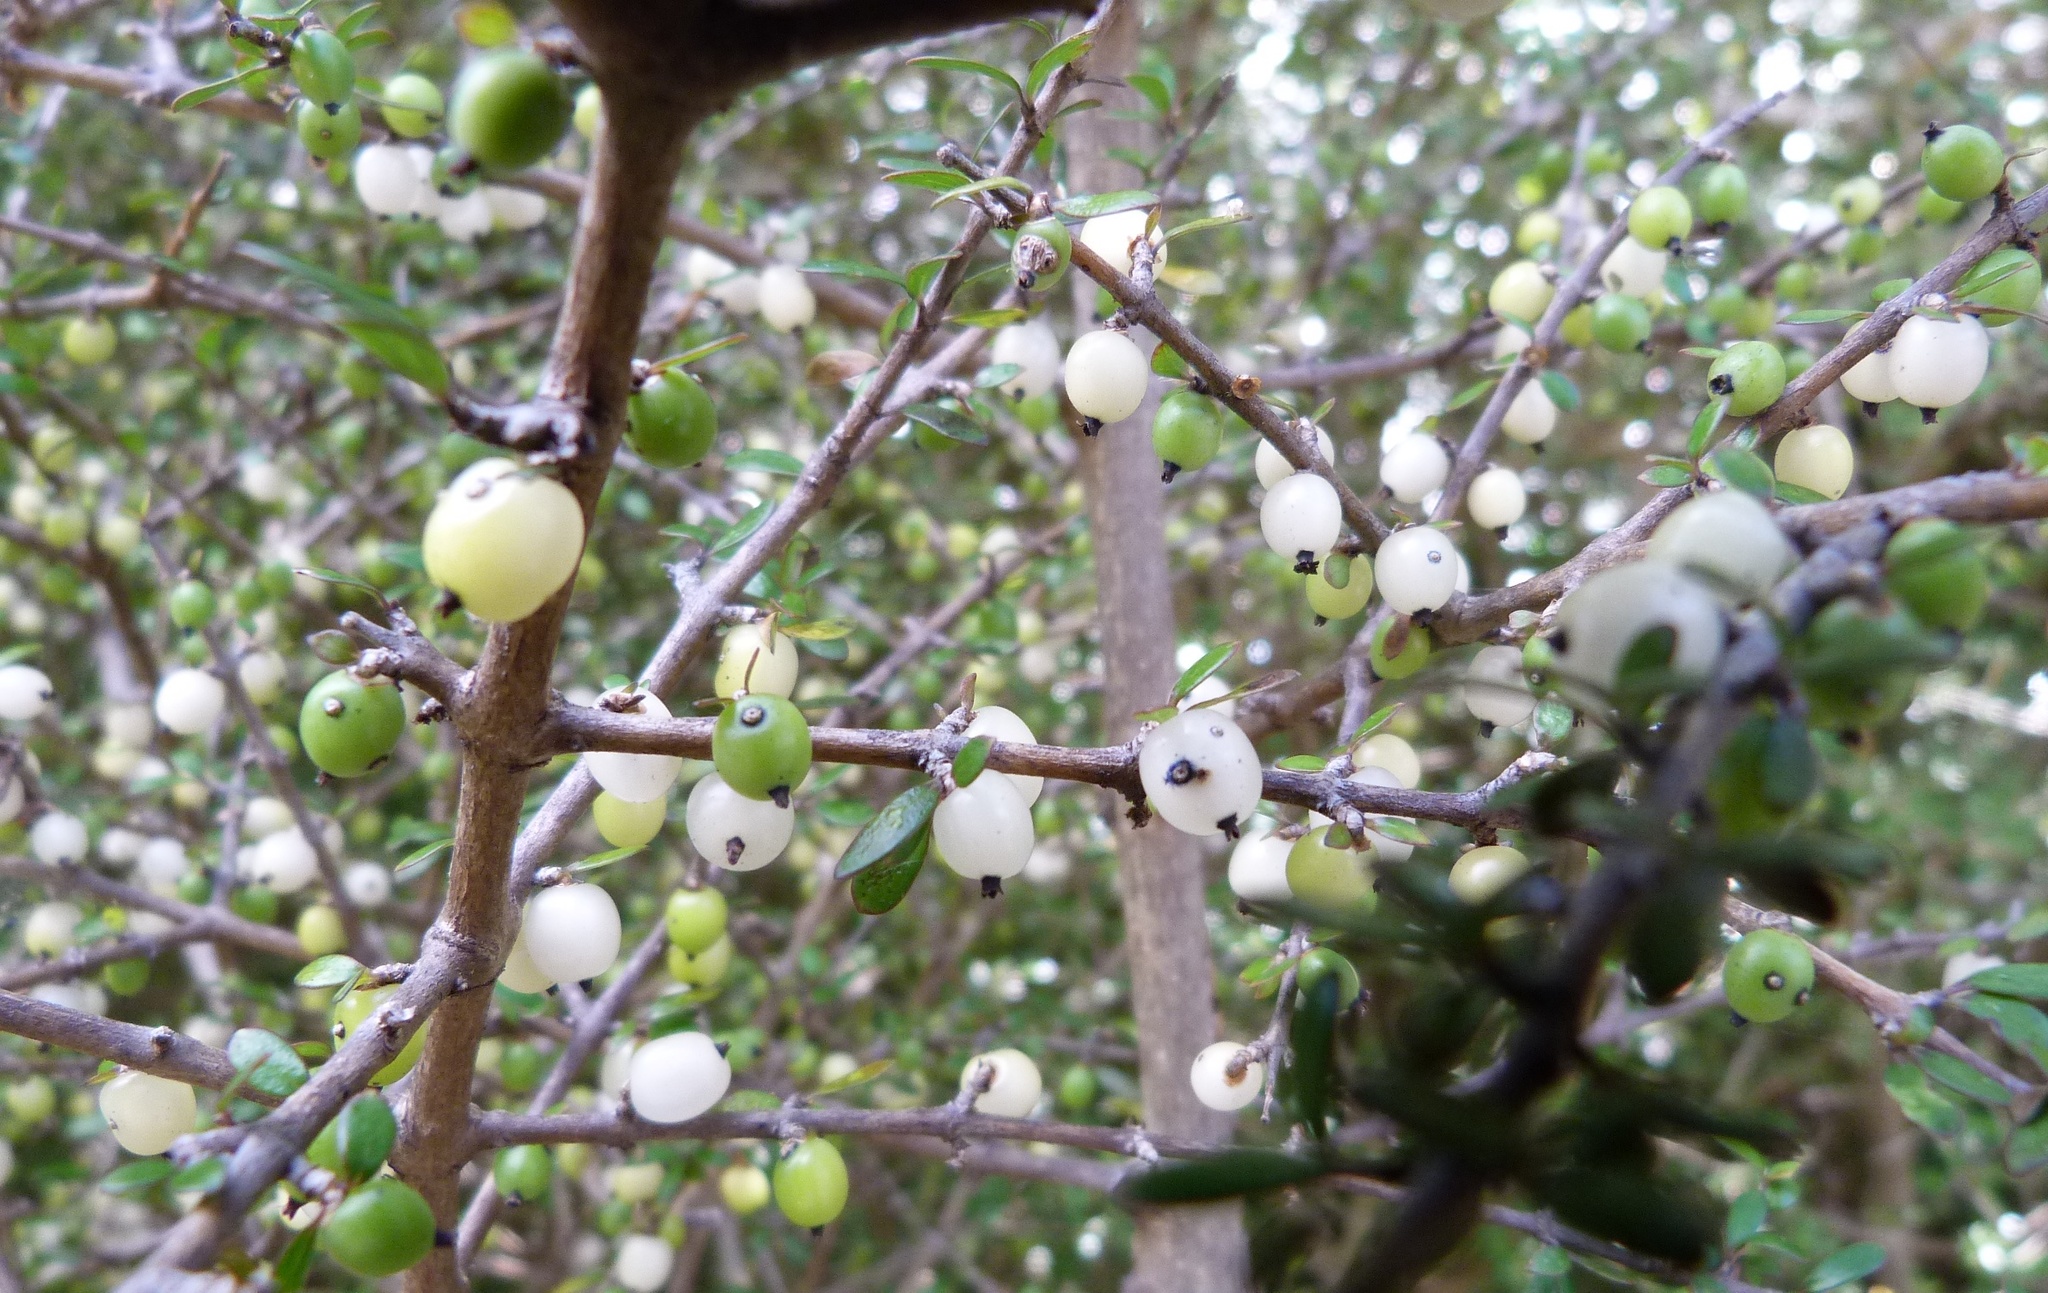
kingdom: Plantae
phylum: Tracheophyta
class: Magnoliopsida
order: Gentianales
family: Rubiaceae
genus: Coprosma
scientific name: Coprosma propinqua
